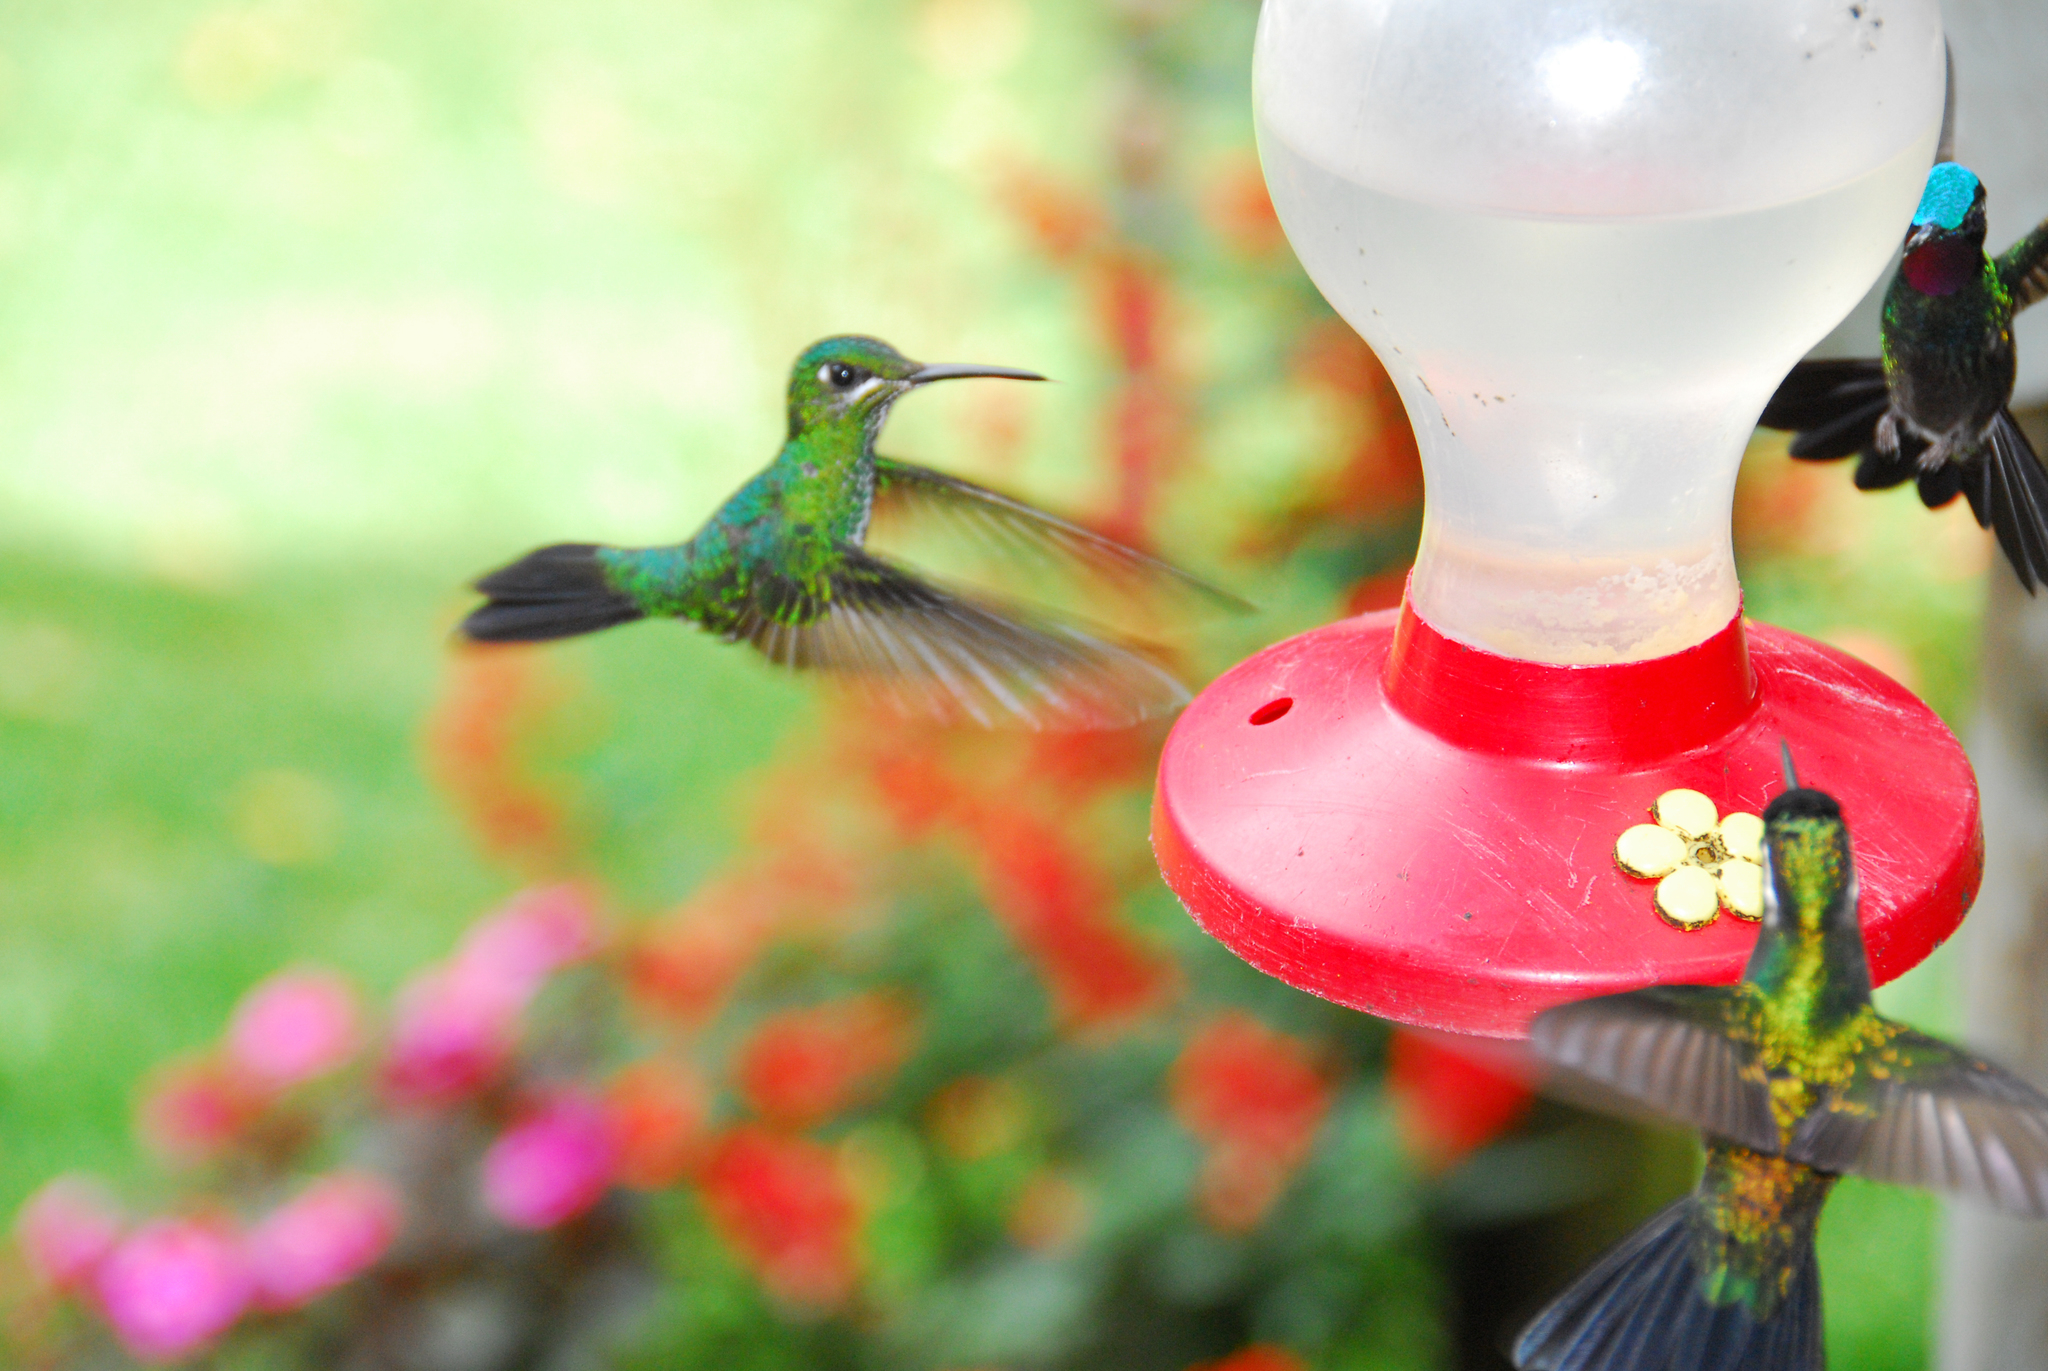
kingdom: Animalia
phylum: Chordata
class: Aves
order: Apodiformes
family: Trochilidae
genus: Heliodoxa
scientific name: Heliodoxa jacula
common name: Green-crowned brilliant
